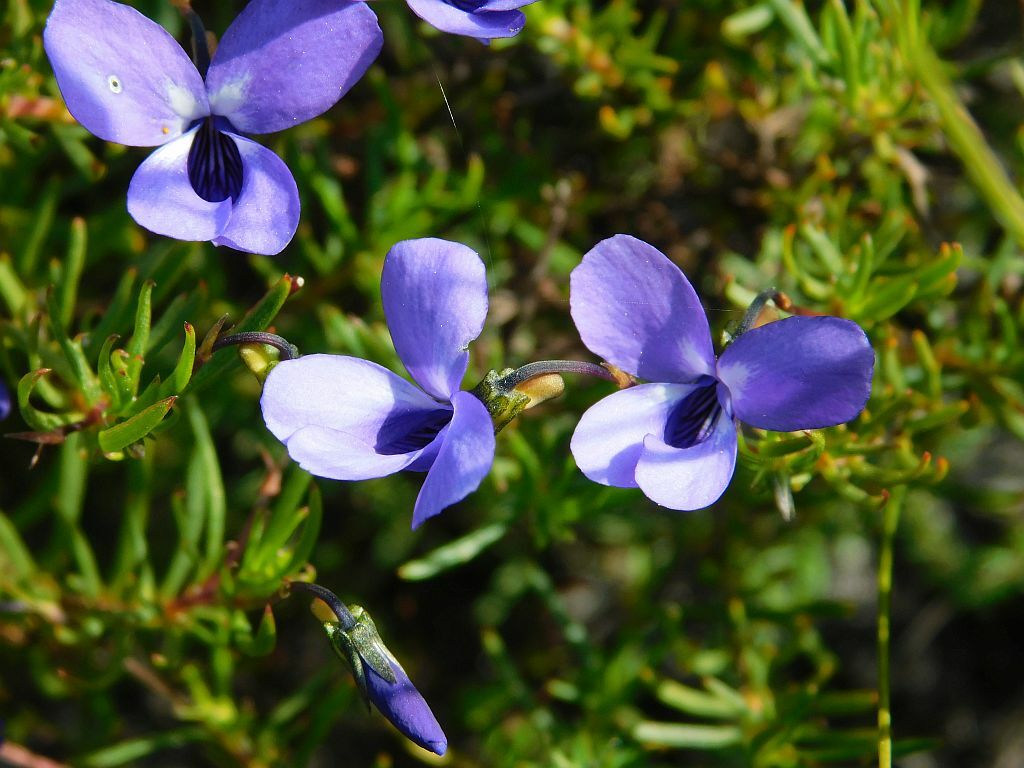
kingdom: Plantae
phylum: Tracheophyta
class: Magnoliopsida
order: Malpighiales
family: Violaceae
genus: Viola
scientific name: Viola decumbens
